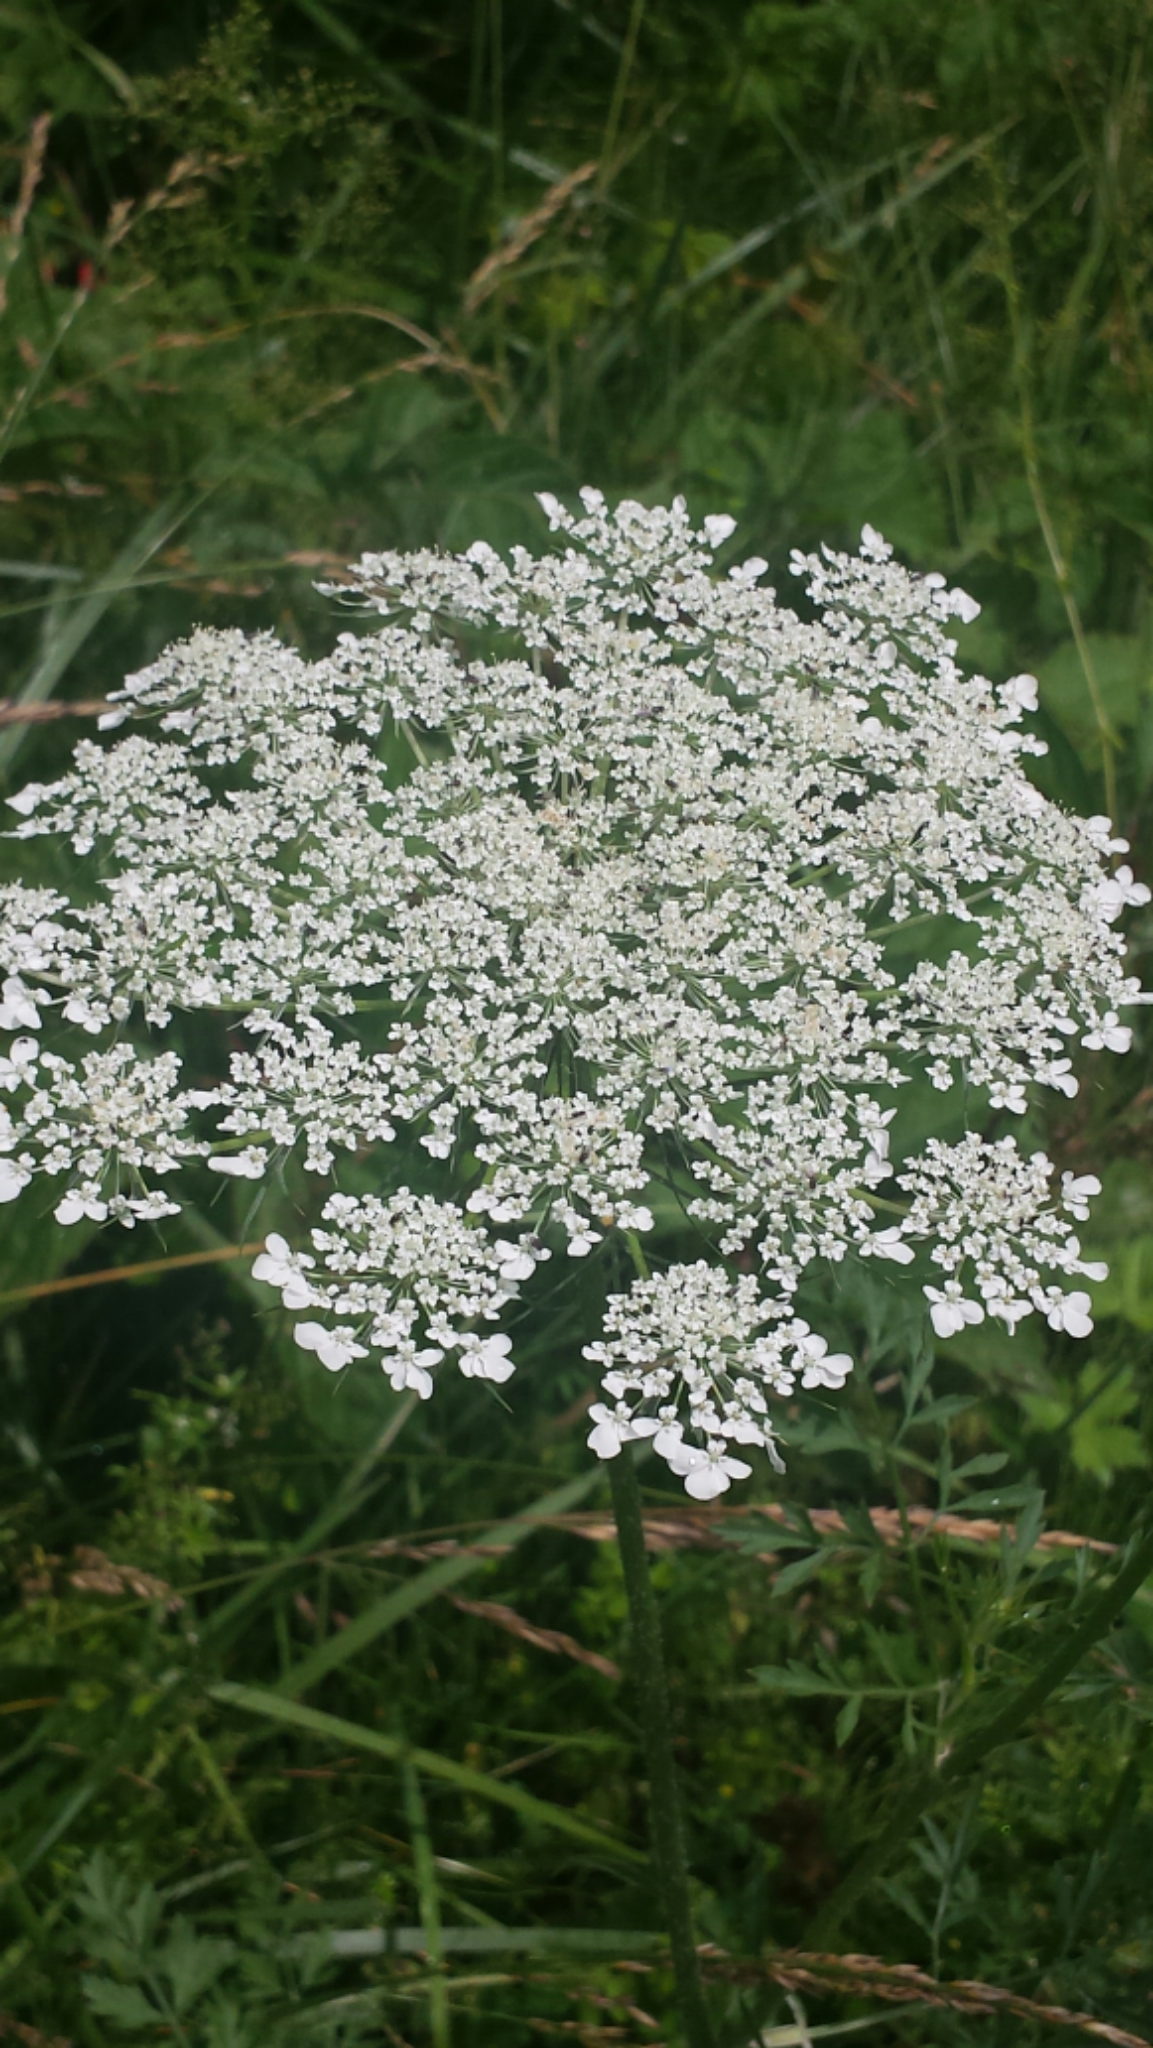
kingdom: Plantae
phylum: Tracheophyta
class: Magnoliopsida
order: Apiales
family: Apiaceae
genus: Daucus
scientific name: Daucus carota
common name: Wild carrot
